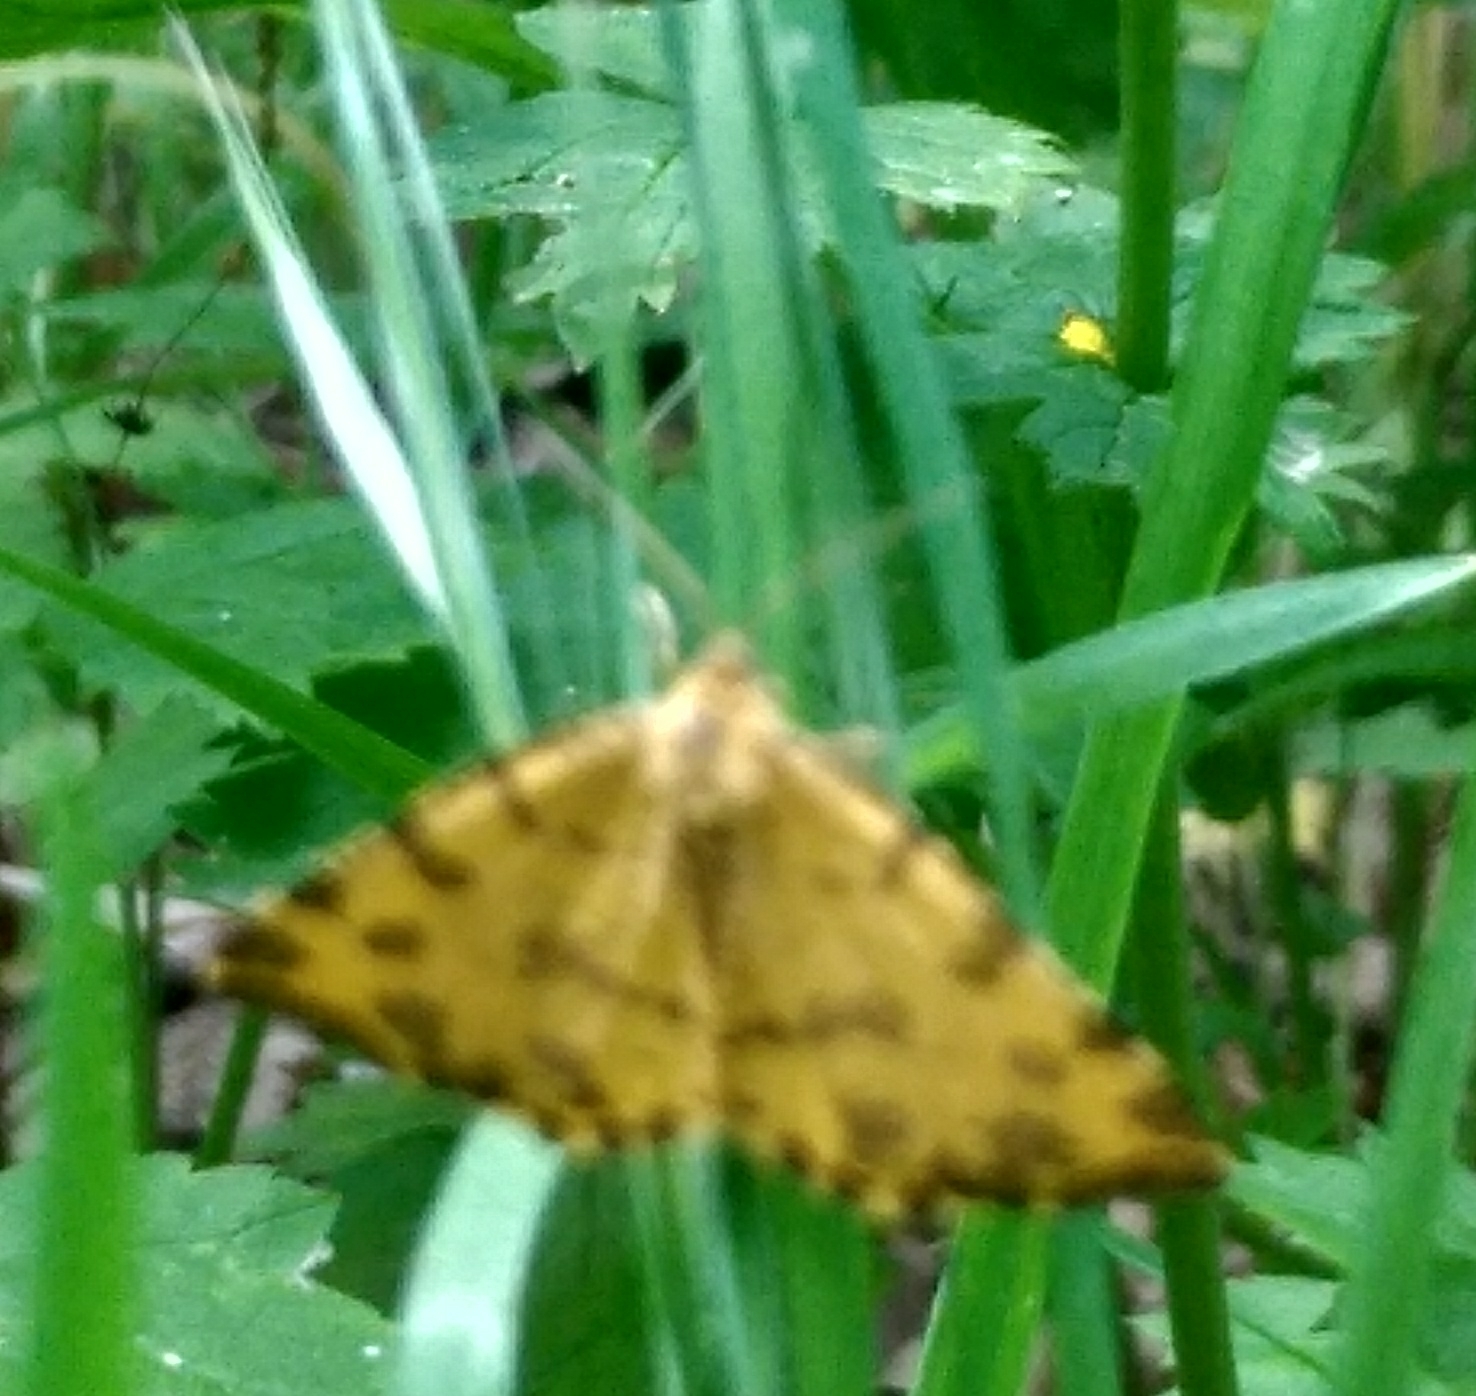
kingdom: Animalia
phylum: Arthropoda
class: Insecta
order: Lepidoptera
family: Geometridae
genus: Pseudopanthera
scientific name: Pseudopanthera macularia
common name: Speckled yellow
